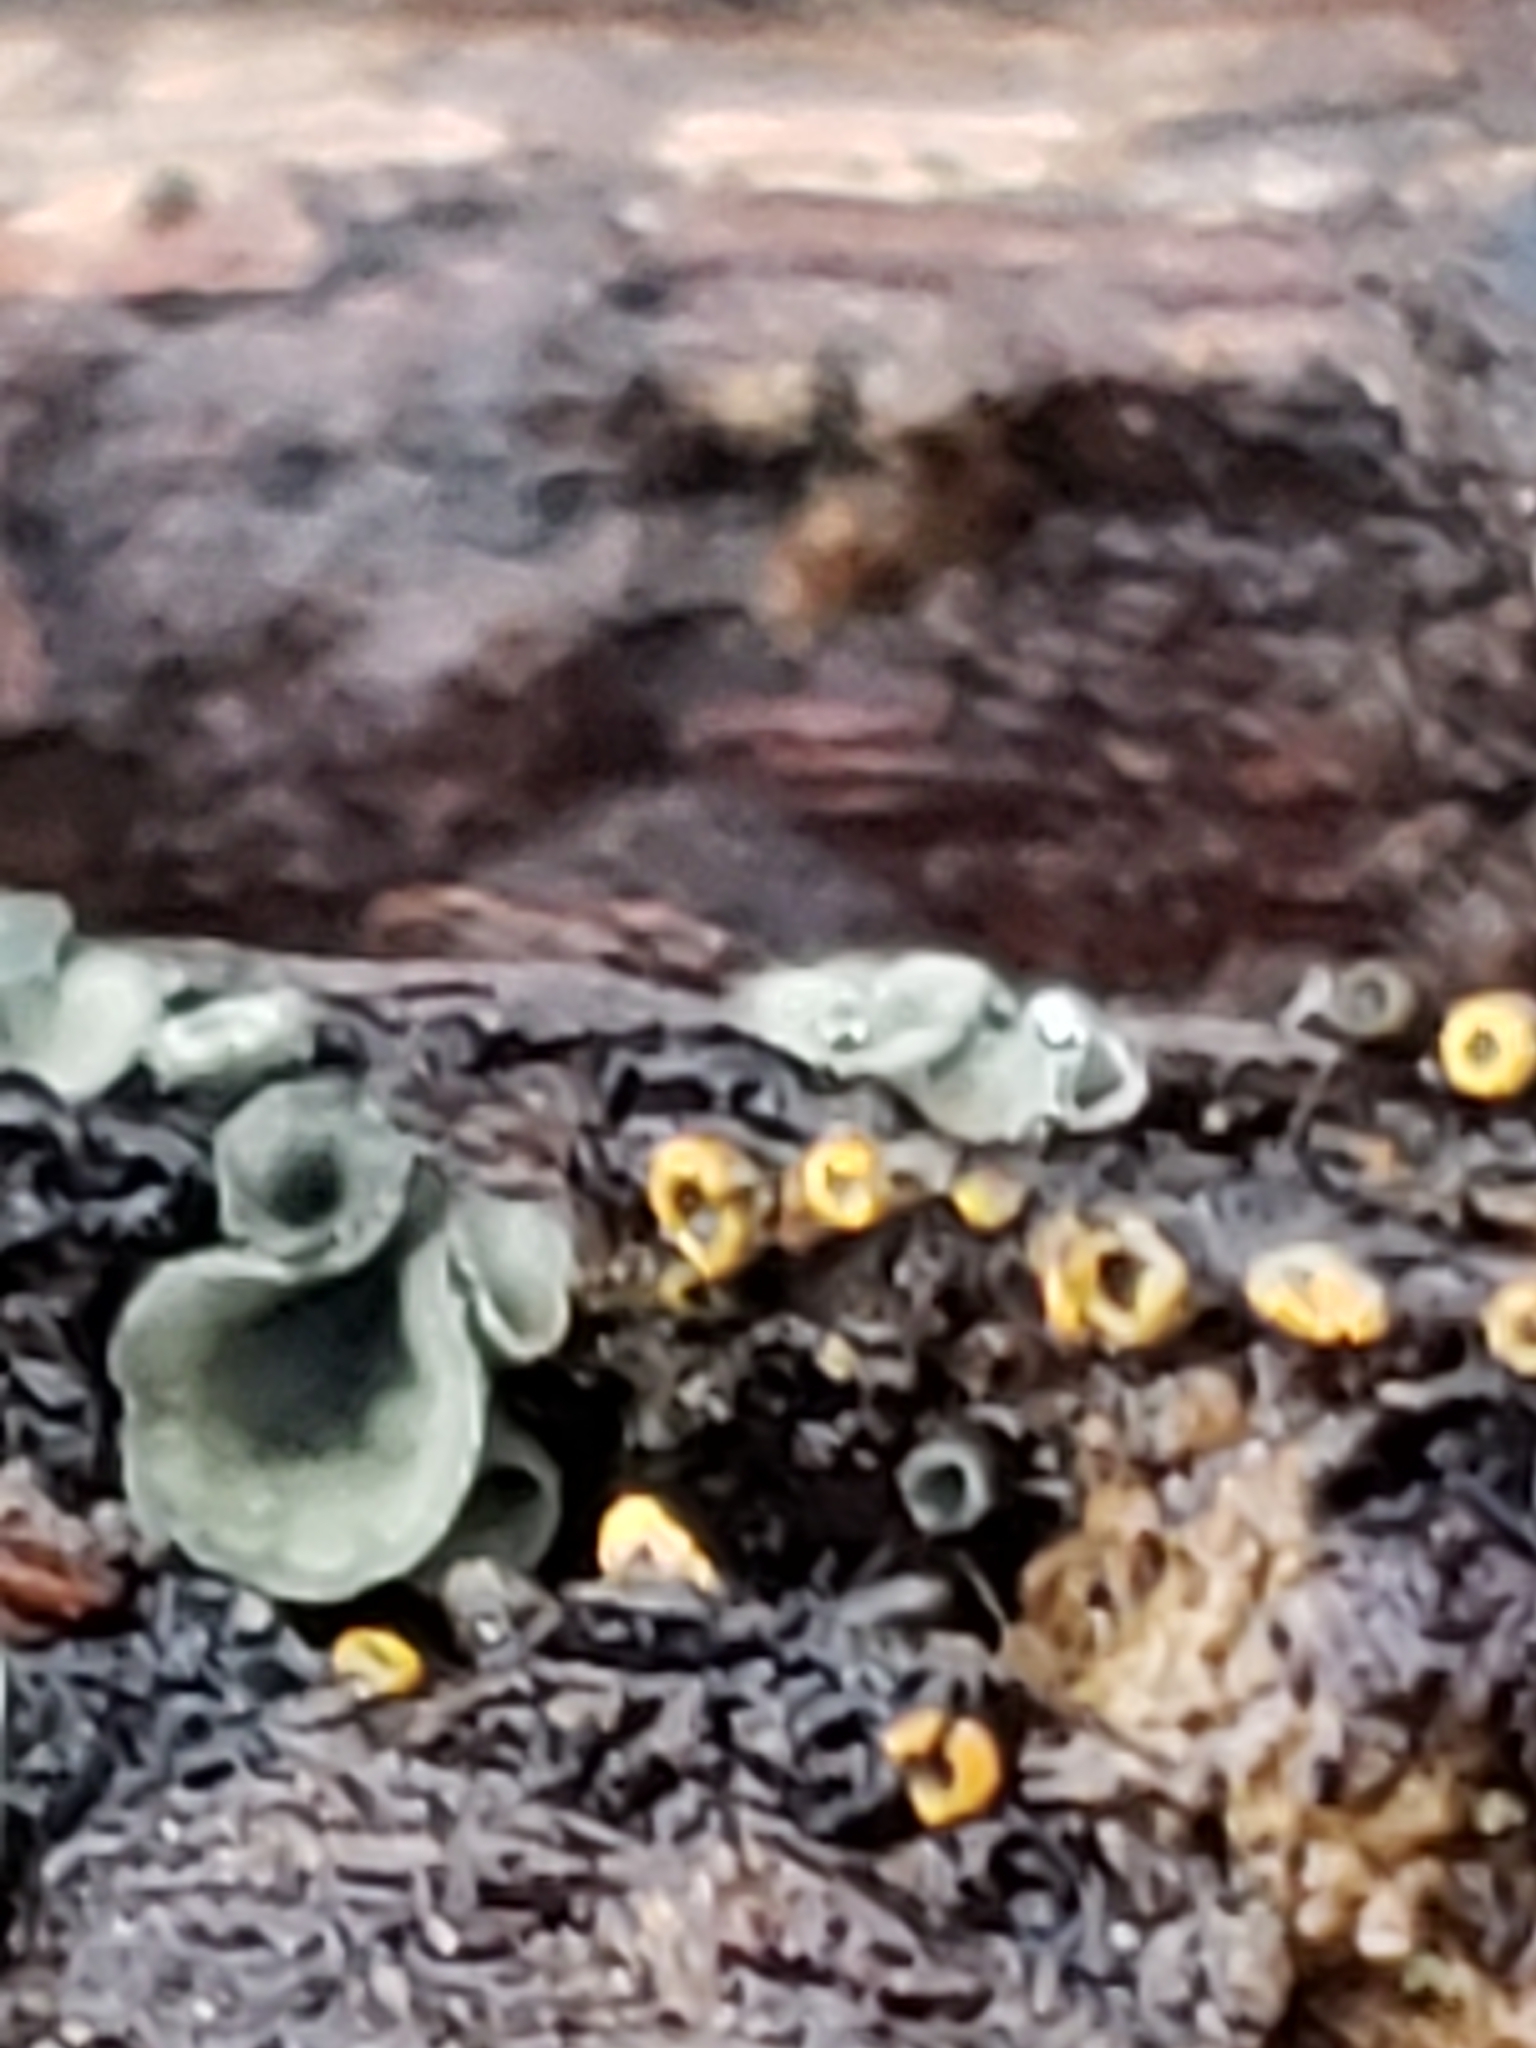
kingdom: Fungi
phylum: Ascomycota
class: Leotiomycetes
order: Helotiales
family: Chlorospleniaceae
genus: Chlorosplenium
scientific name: Chlorosplenium chlora
